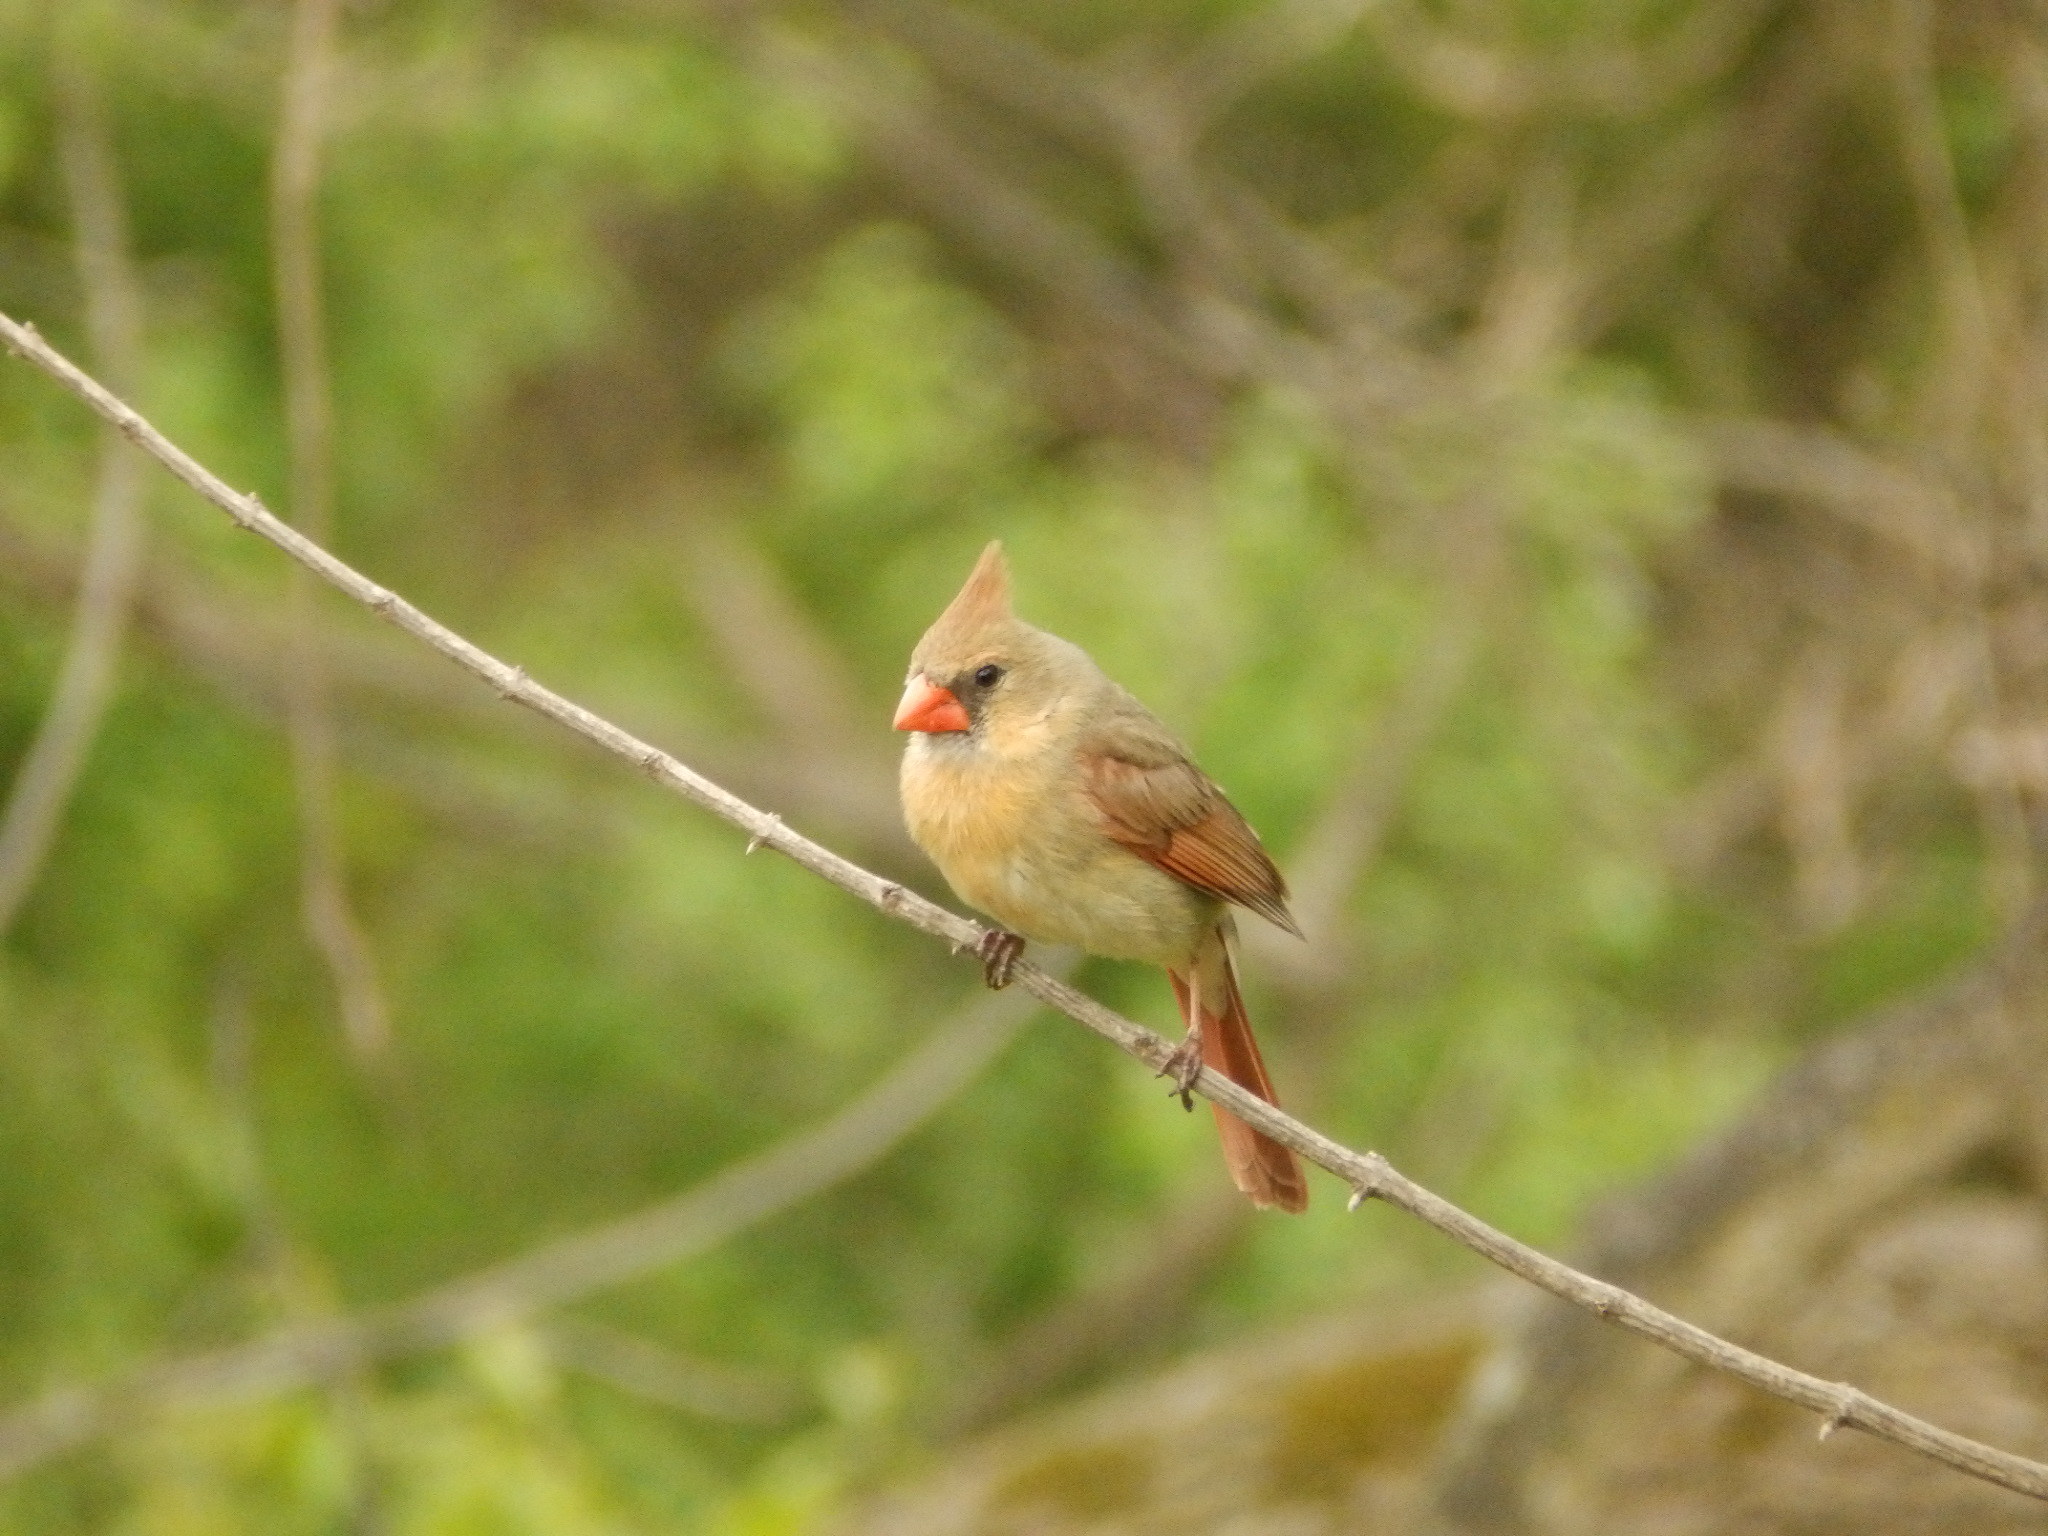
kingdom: Animalia
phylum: Chordata
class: Aves
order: Passeriformes
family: Cardinalidae
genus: Cardinalis
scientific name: Cardinalis cardinalis
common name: Northern cardinal
